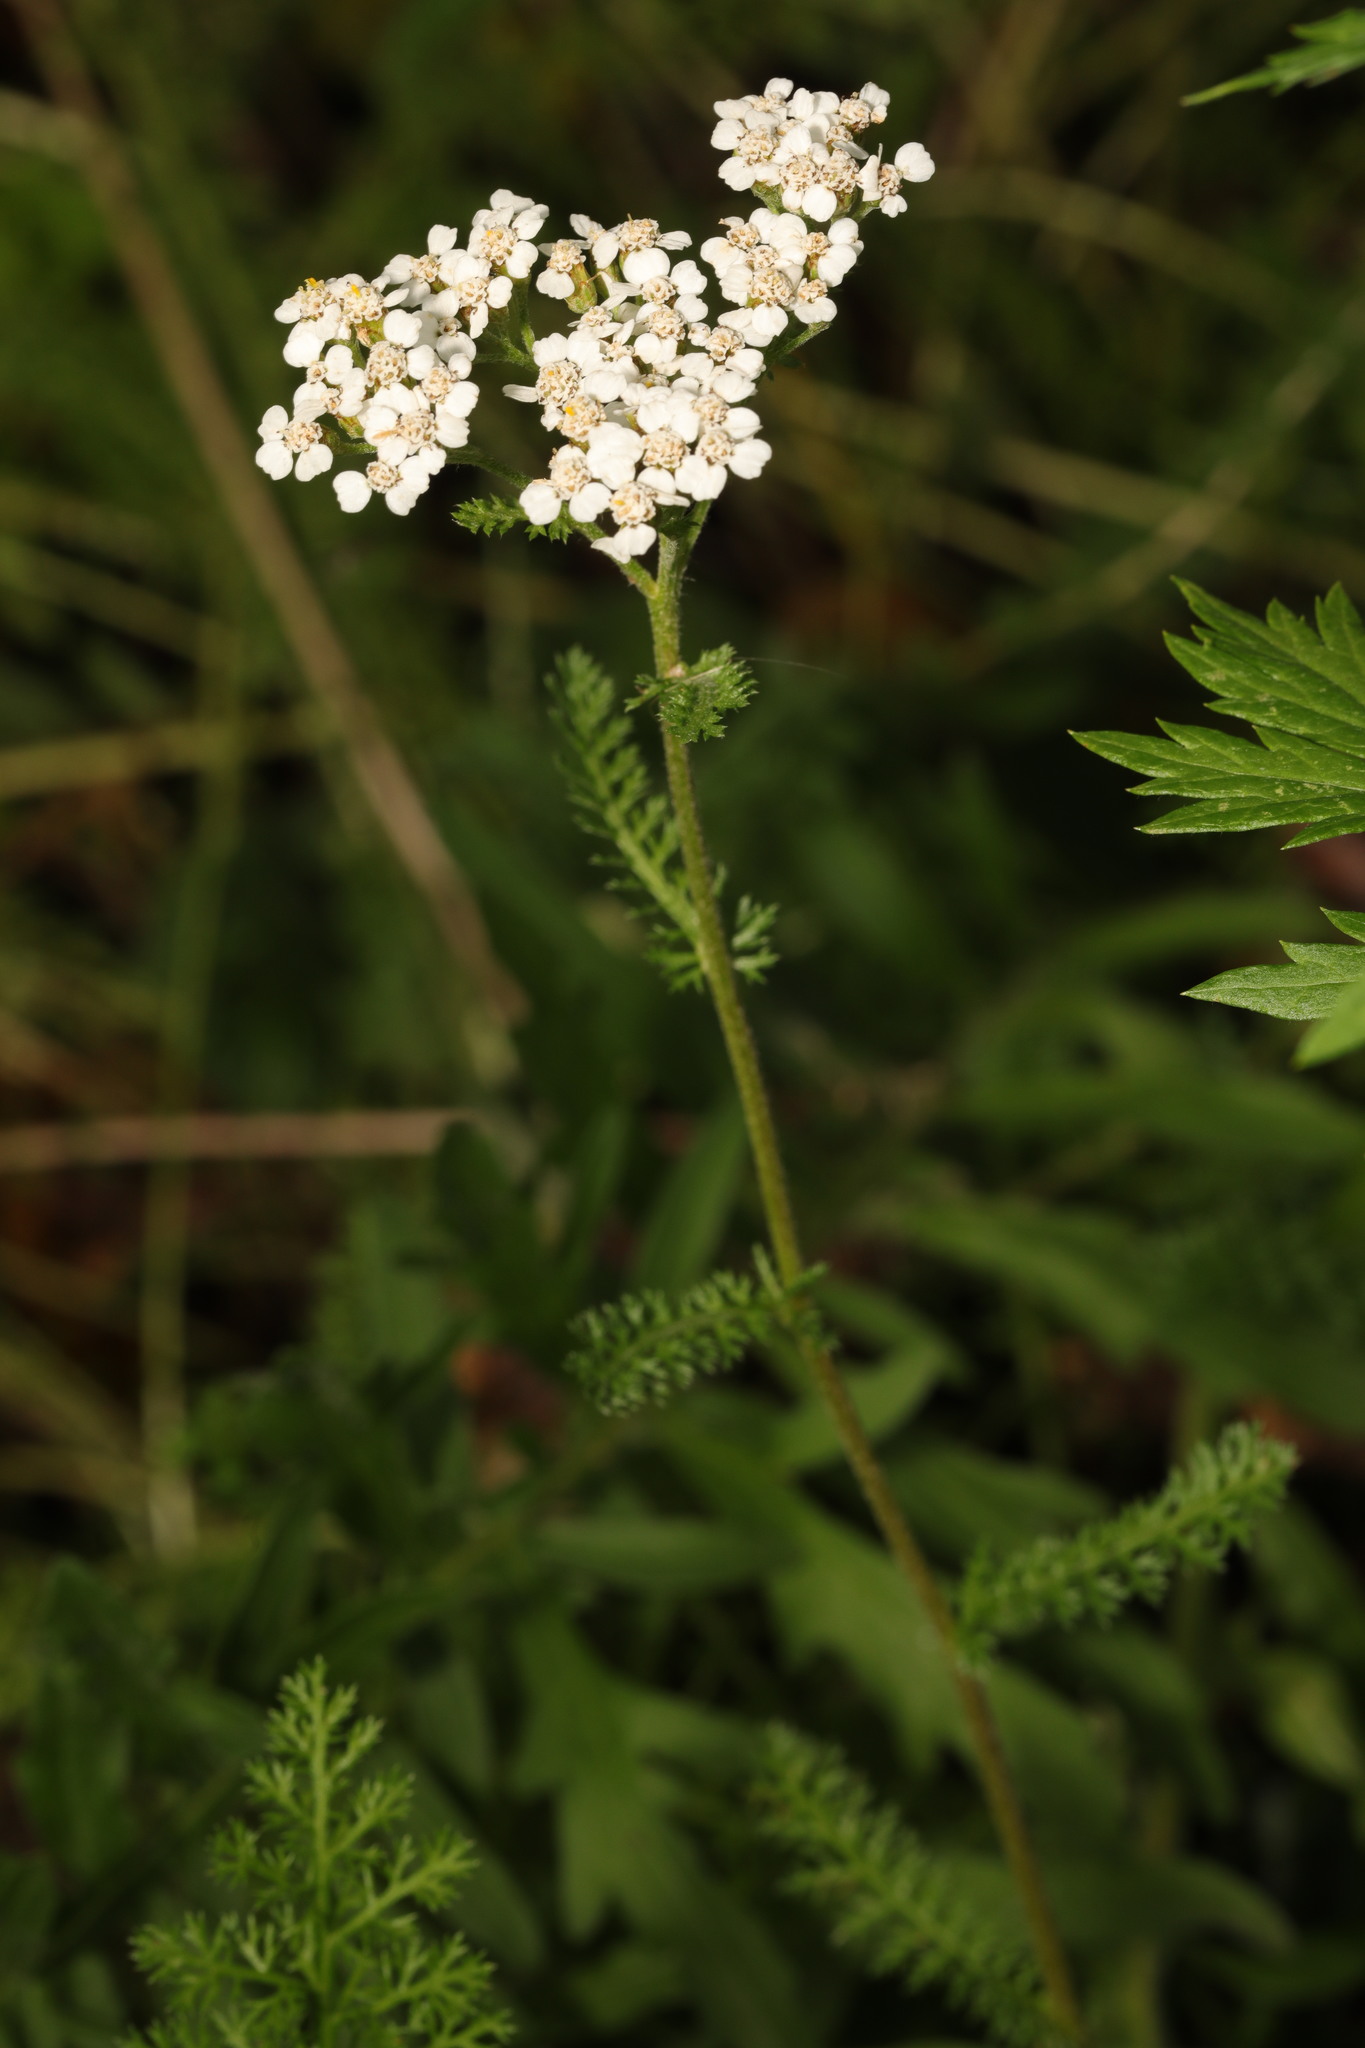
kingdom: Plantae
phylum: Tracheophyta
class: Magnoliopsida
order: Asterales
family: Asteraceae
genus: Achillea
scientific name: Achillea millefolium
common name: Yarrow
